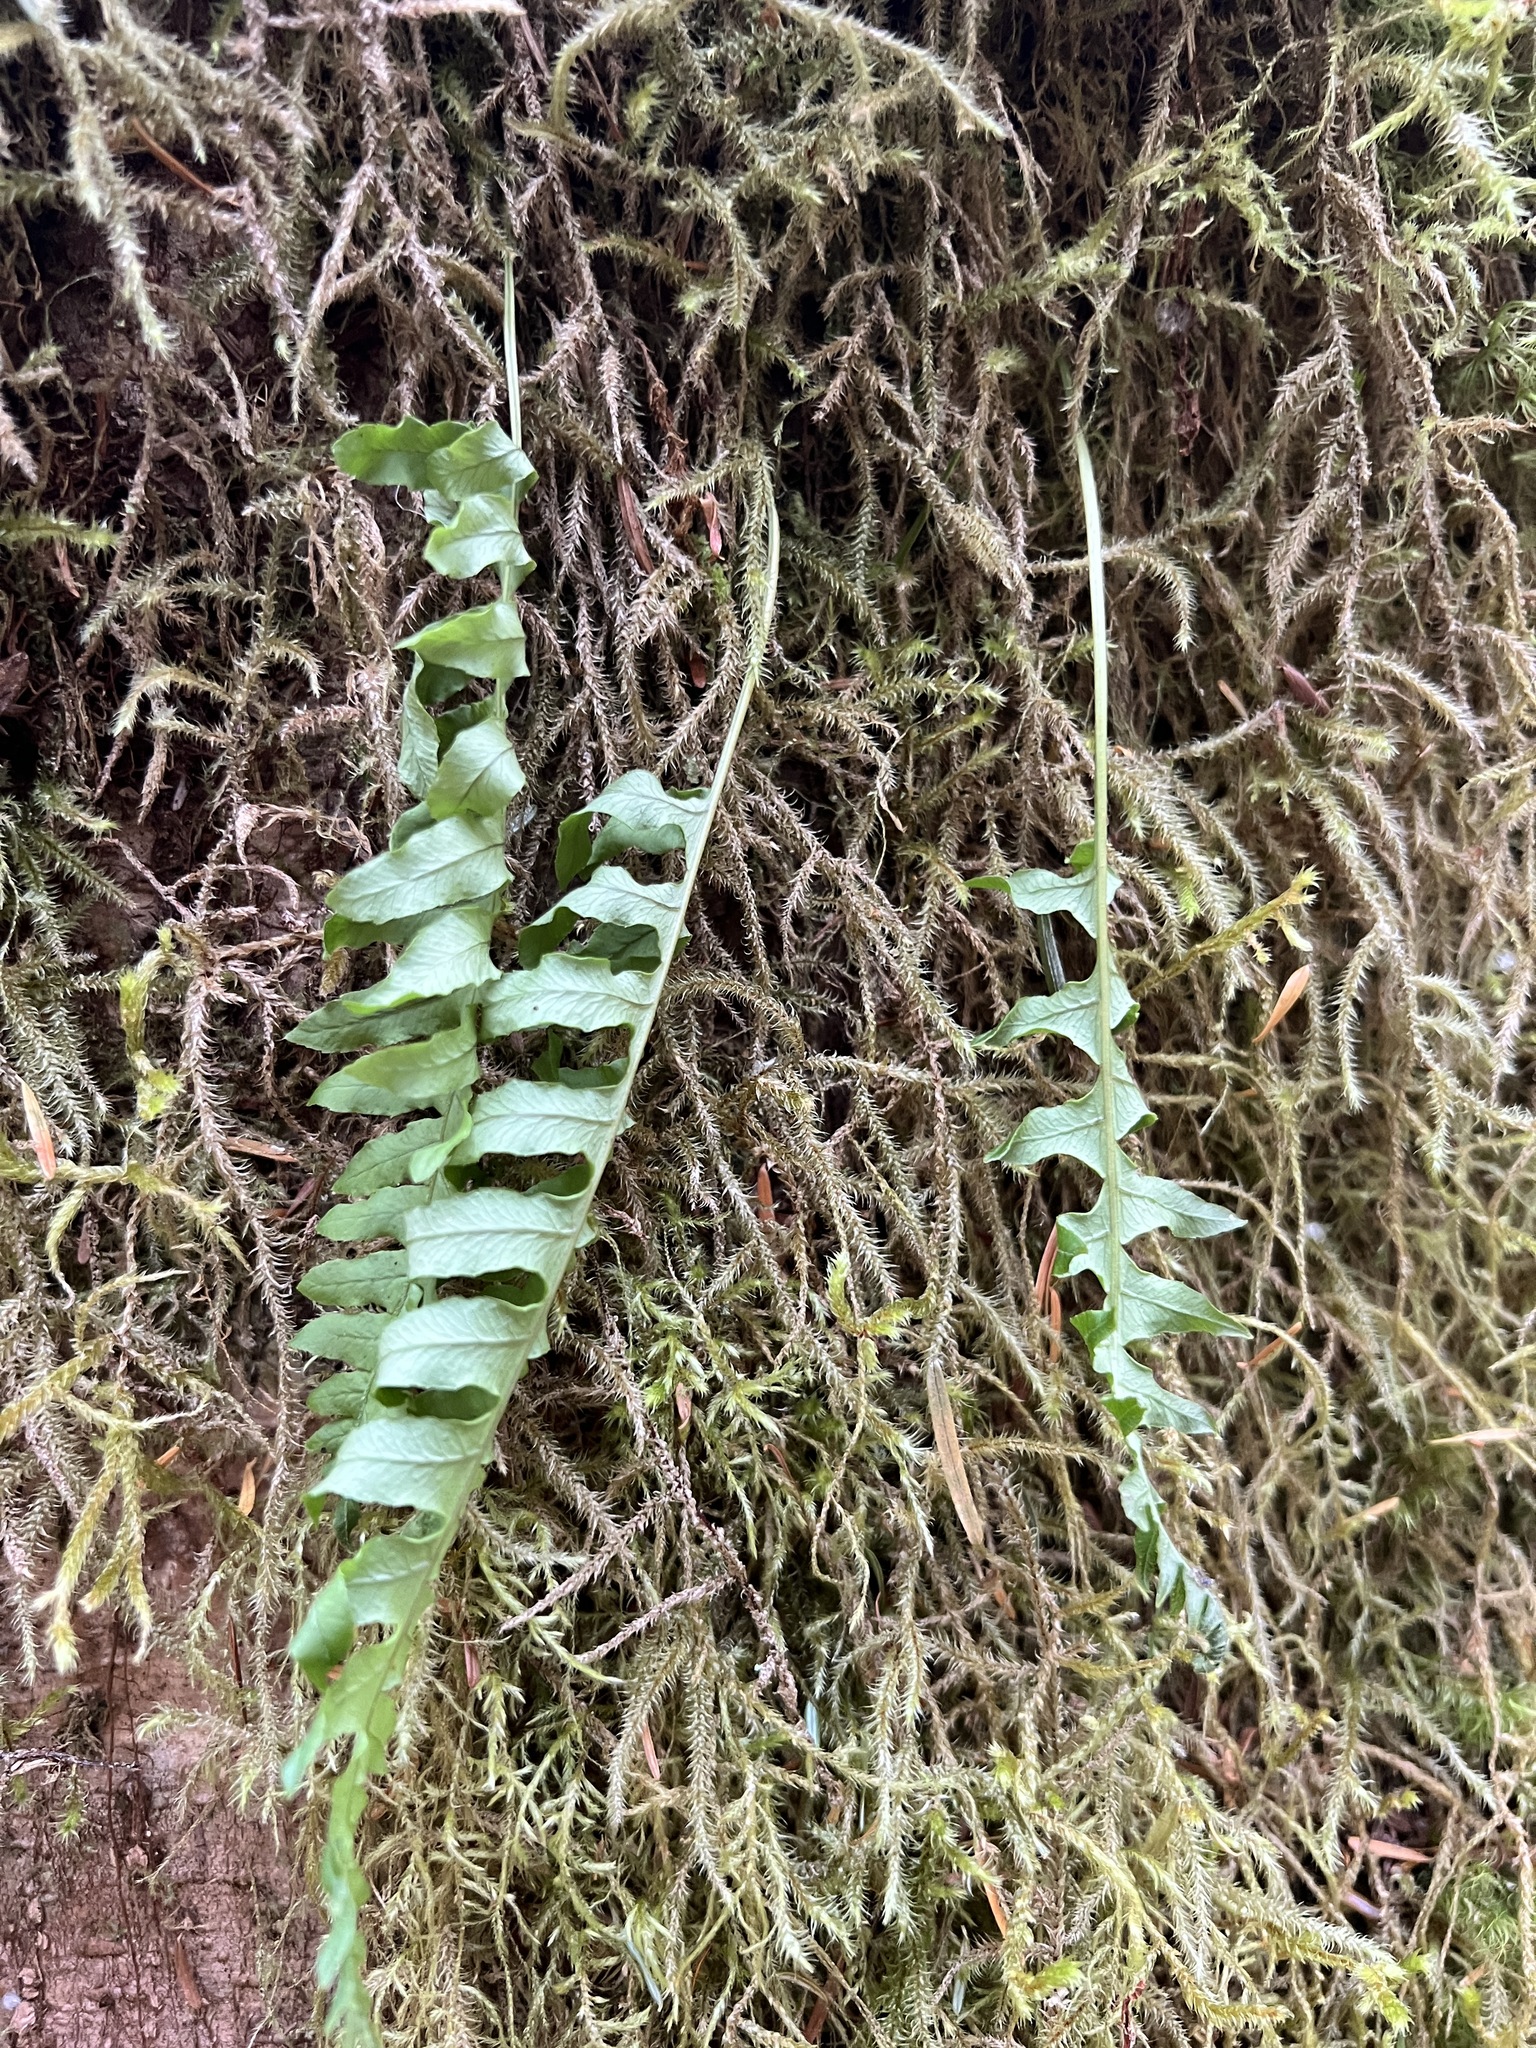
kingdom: Plantae
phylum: Tracheophyta
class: Polypodiopsida
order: Polypodiales
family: Polypodiaceae
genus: Polypodium
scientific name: Polypodium glycyrrhiza
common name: Licorice fern
